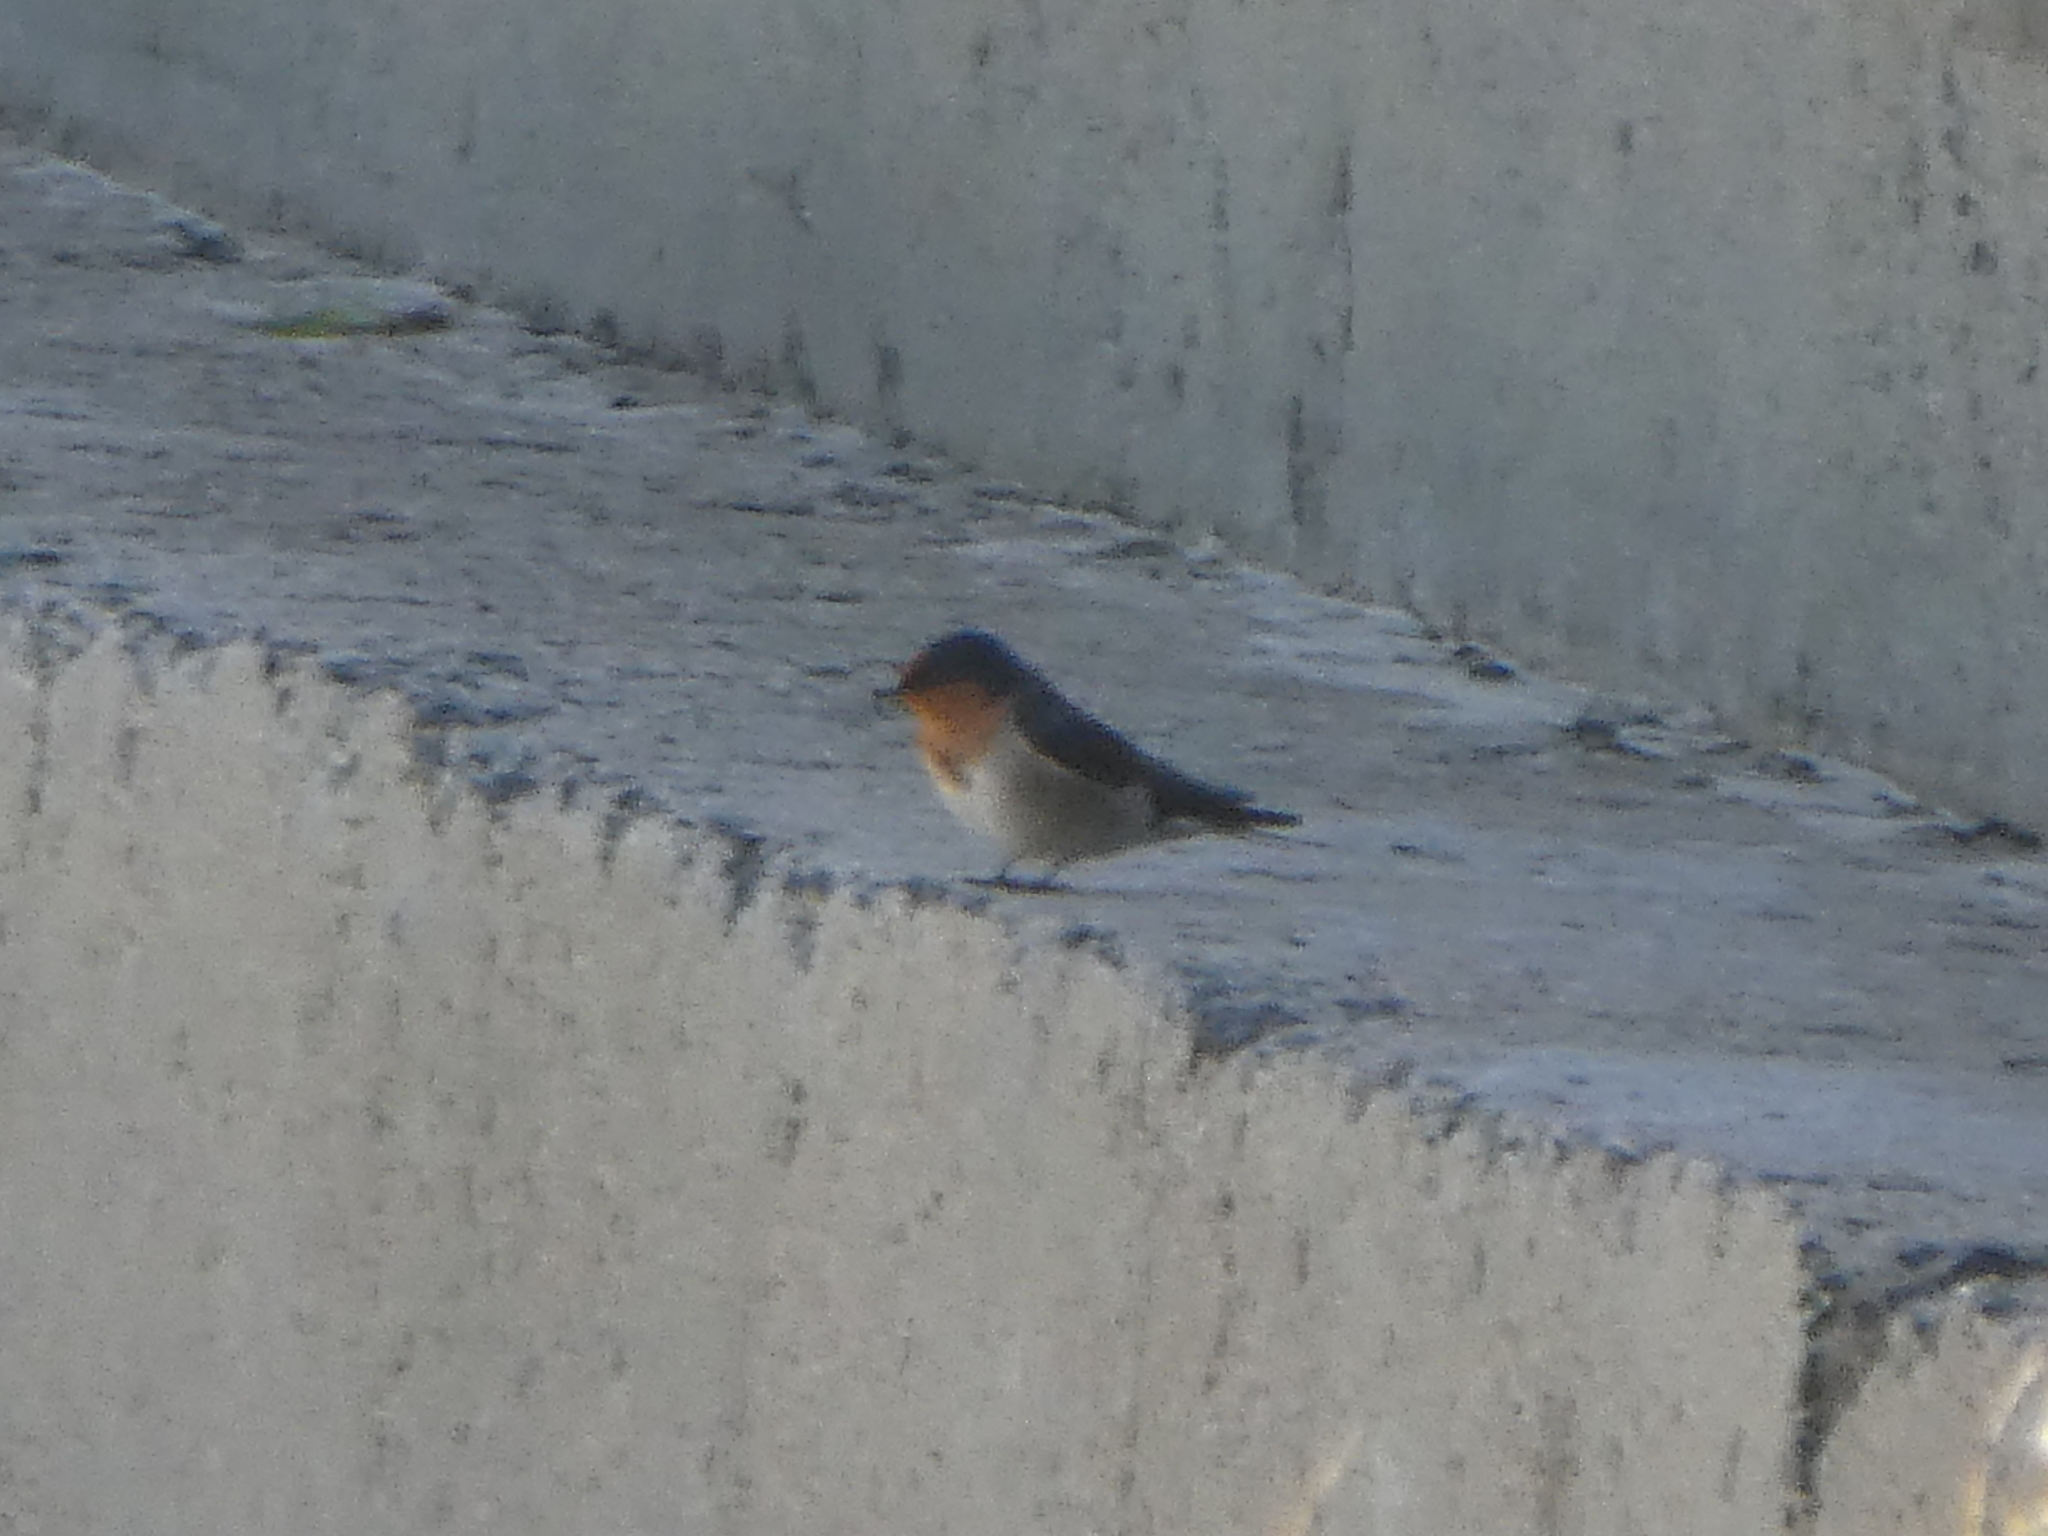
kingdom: Animalia
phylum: Chordata
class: Aves
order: Passeriformes
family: Hirundinidae
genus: Hirundo
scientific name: Hirundo neoxena
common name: Welcome swallow
